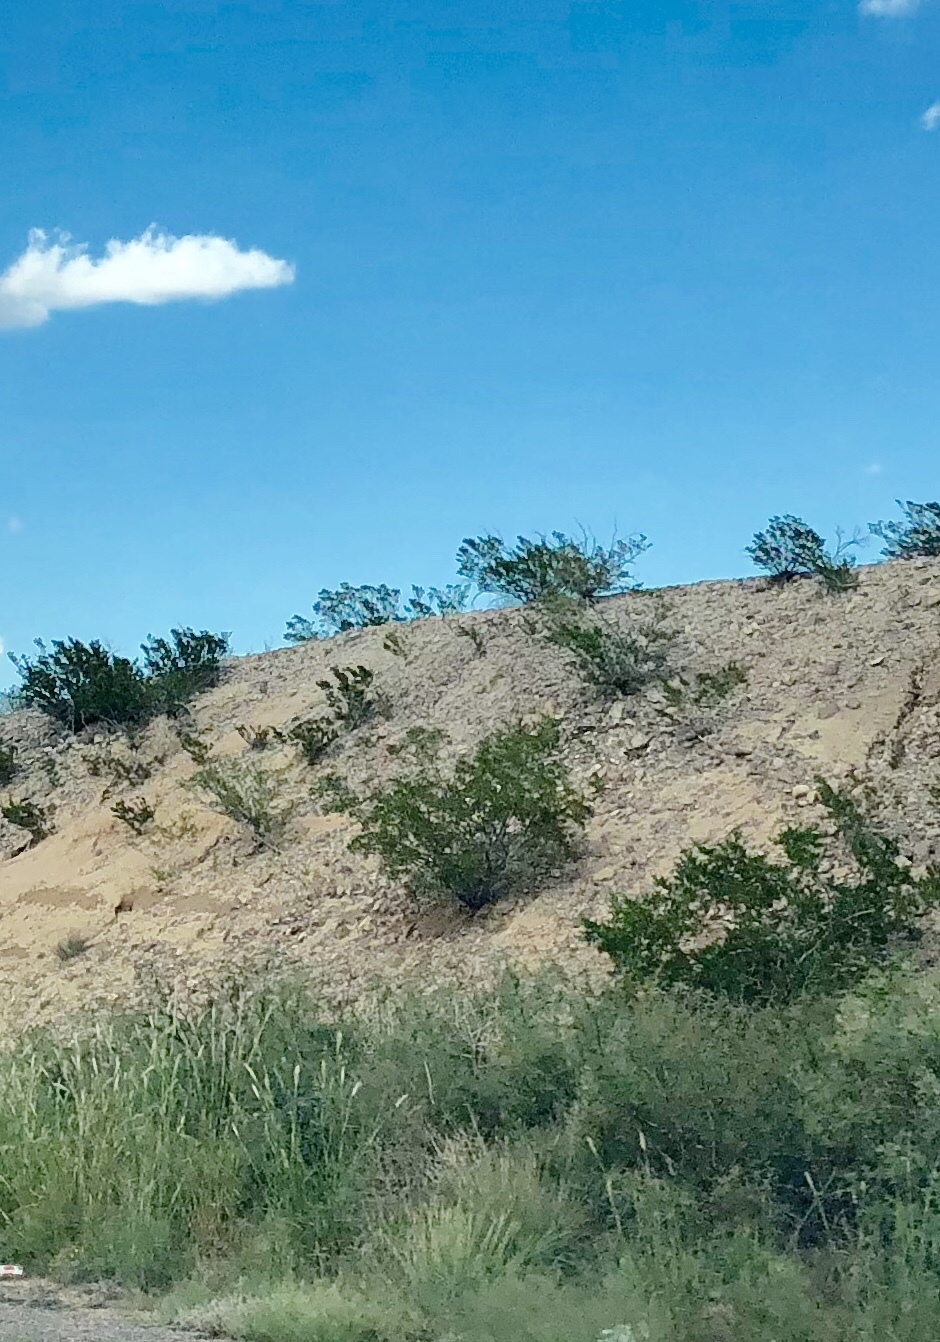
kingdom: Plantae
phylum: Tracheophyta
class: Magnoliopsida
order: Zygophyllales
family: Zygophyllaceae
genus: Larrea
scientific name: Larrea tridentata
